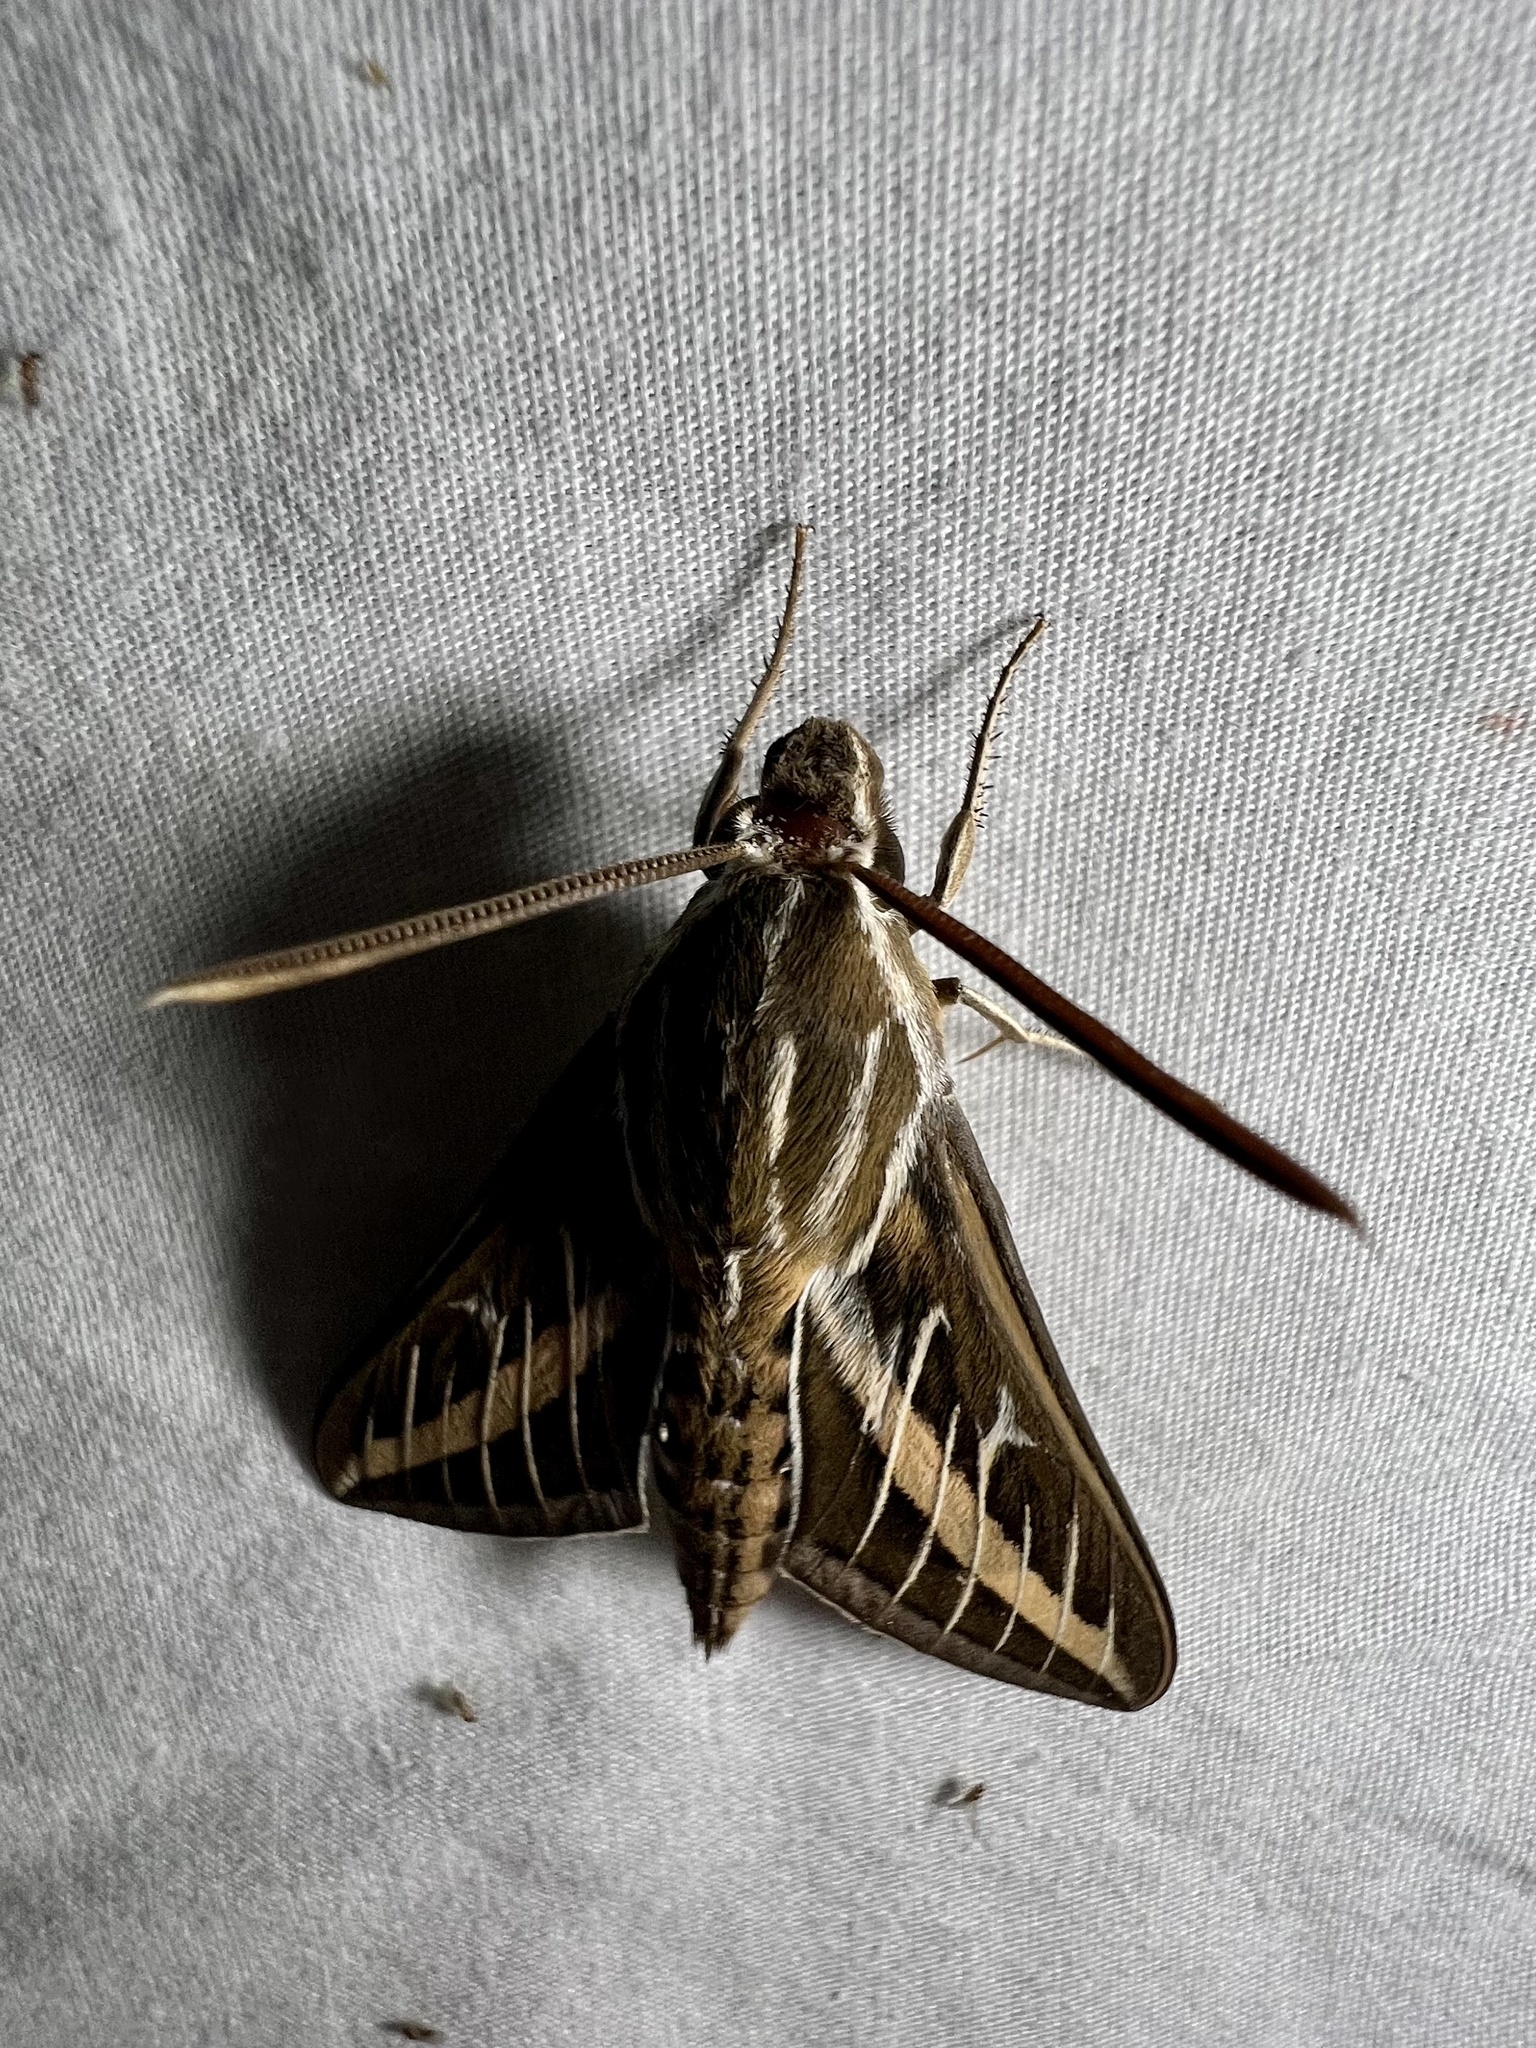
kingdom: Animalia
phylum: Arthropoda
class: Insecta
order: Lepidoptera
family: Sphingidae
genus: Hyles
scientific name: Hyles lineata
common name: White-lined sphinx
